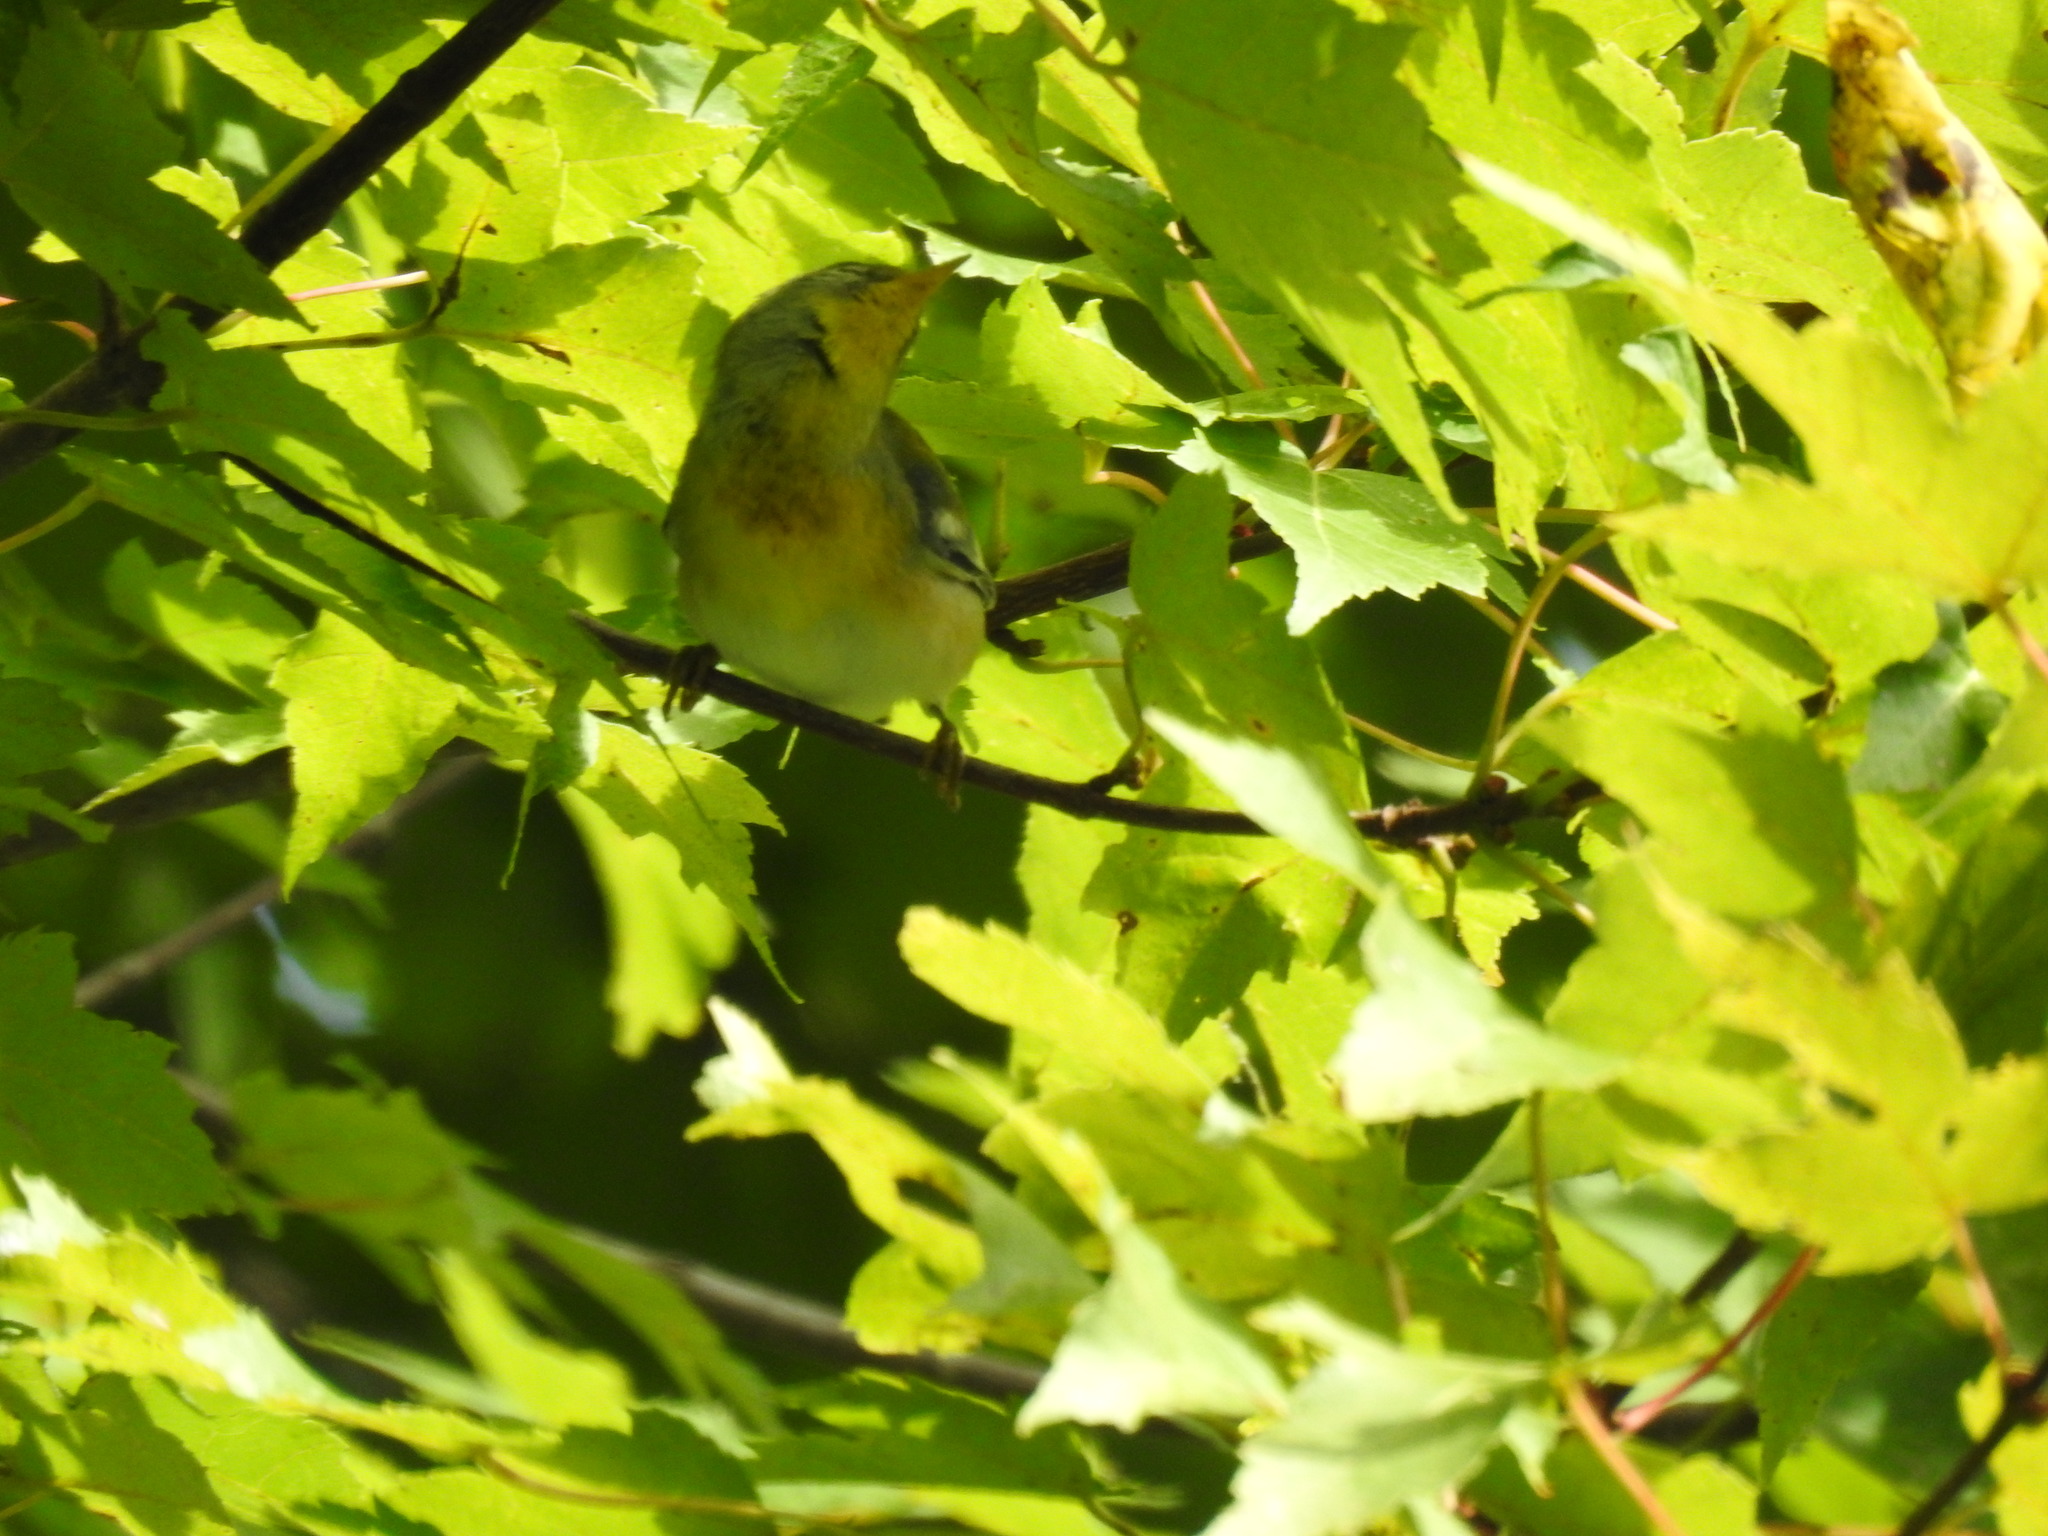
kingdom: Animalia
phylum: Chordata
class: Aves
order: Passeriformes
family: Parulidae
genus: Setophaga
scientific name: Setophaga americana
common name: Northern parula
